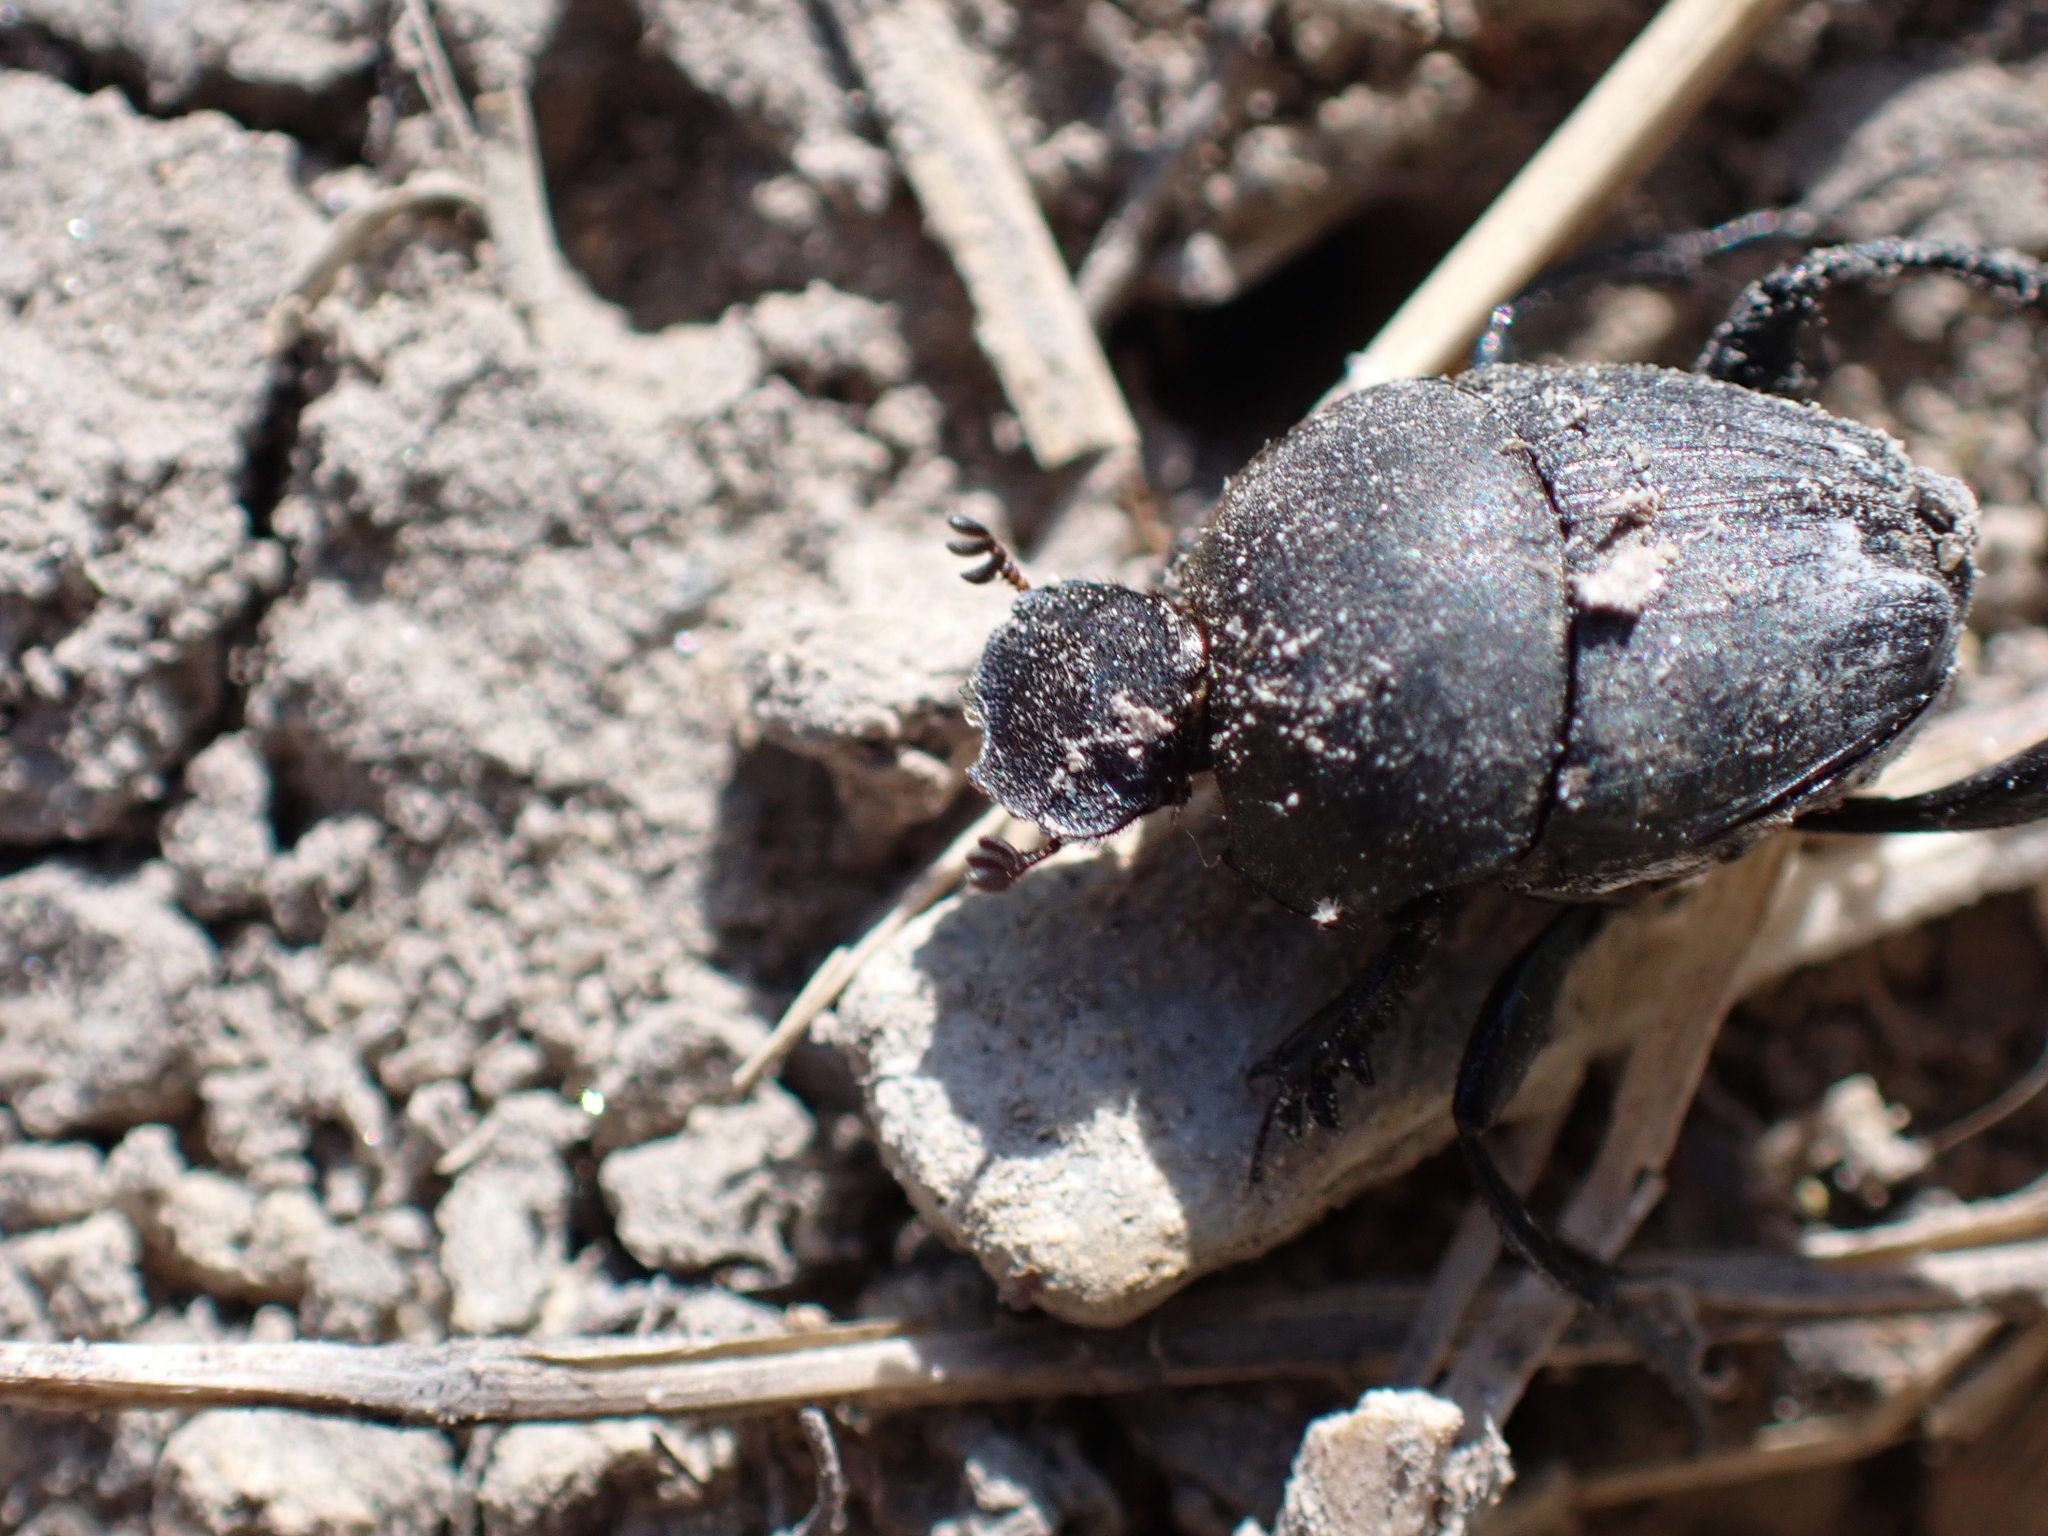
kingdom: Animalia
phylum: Arthropoda
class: Insecta
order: Coleoptera
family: Scarabaeidae
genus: Sisyphus
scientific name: Sisyphus schaefferi
